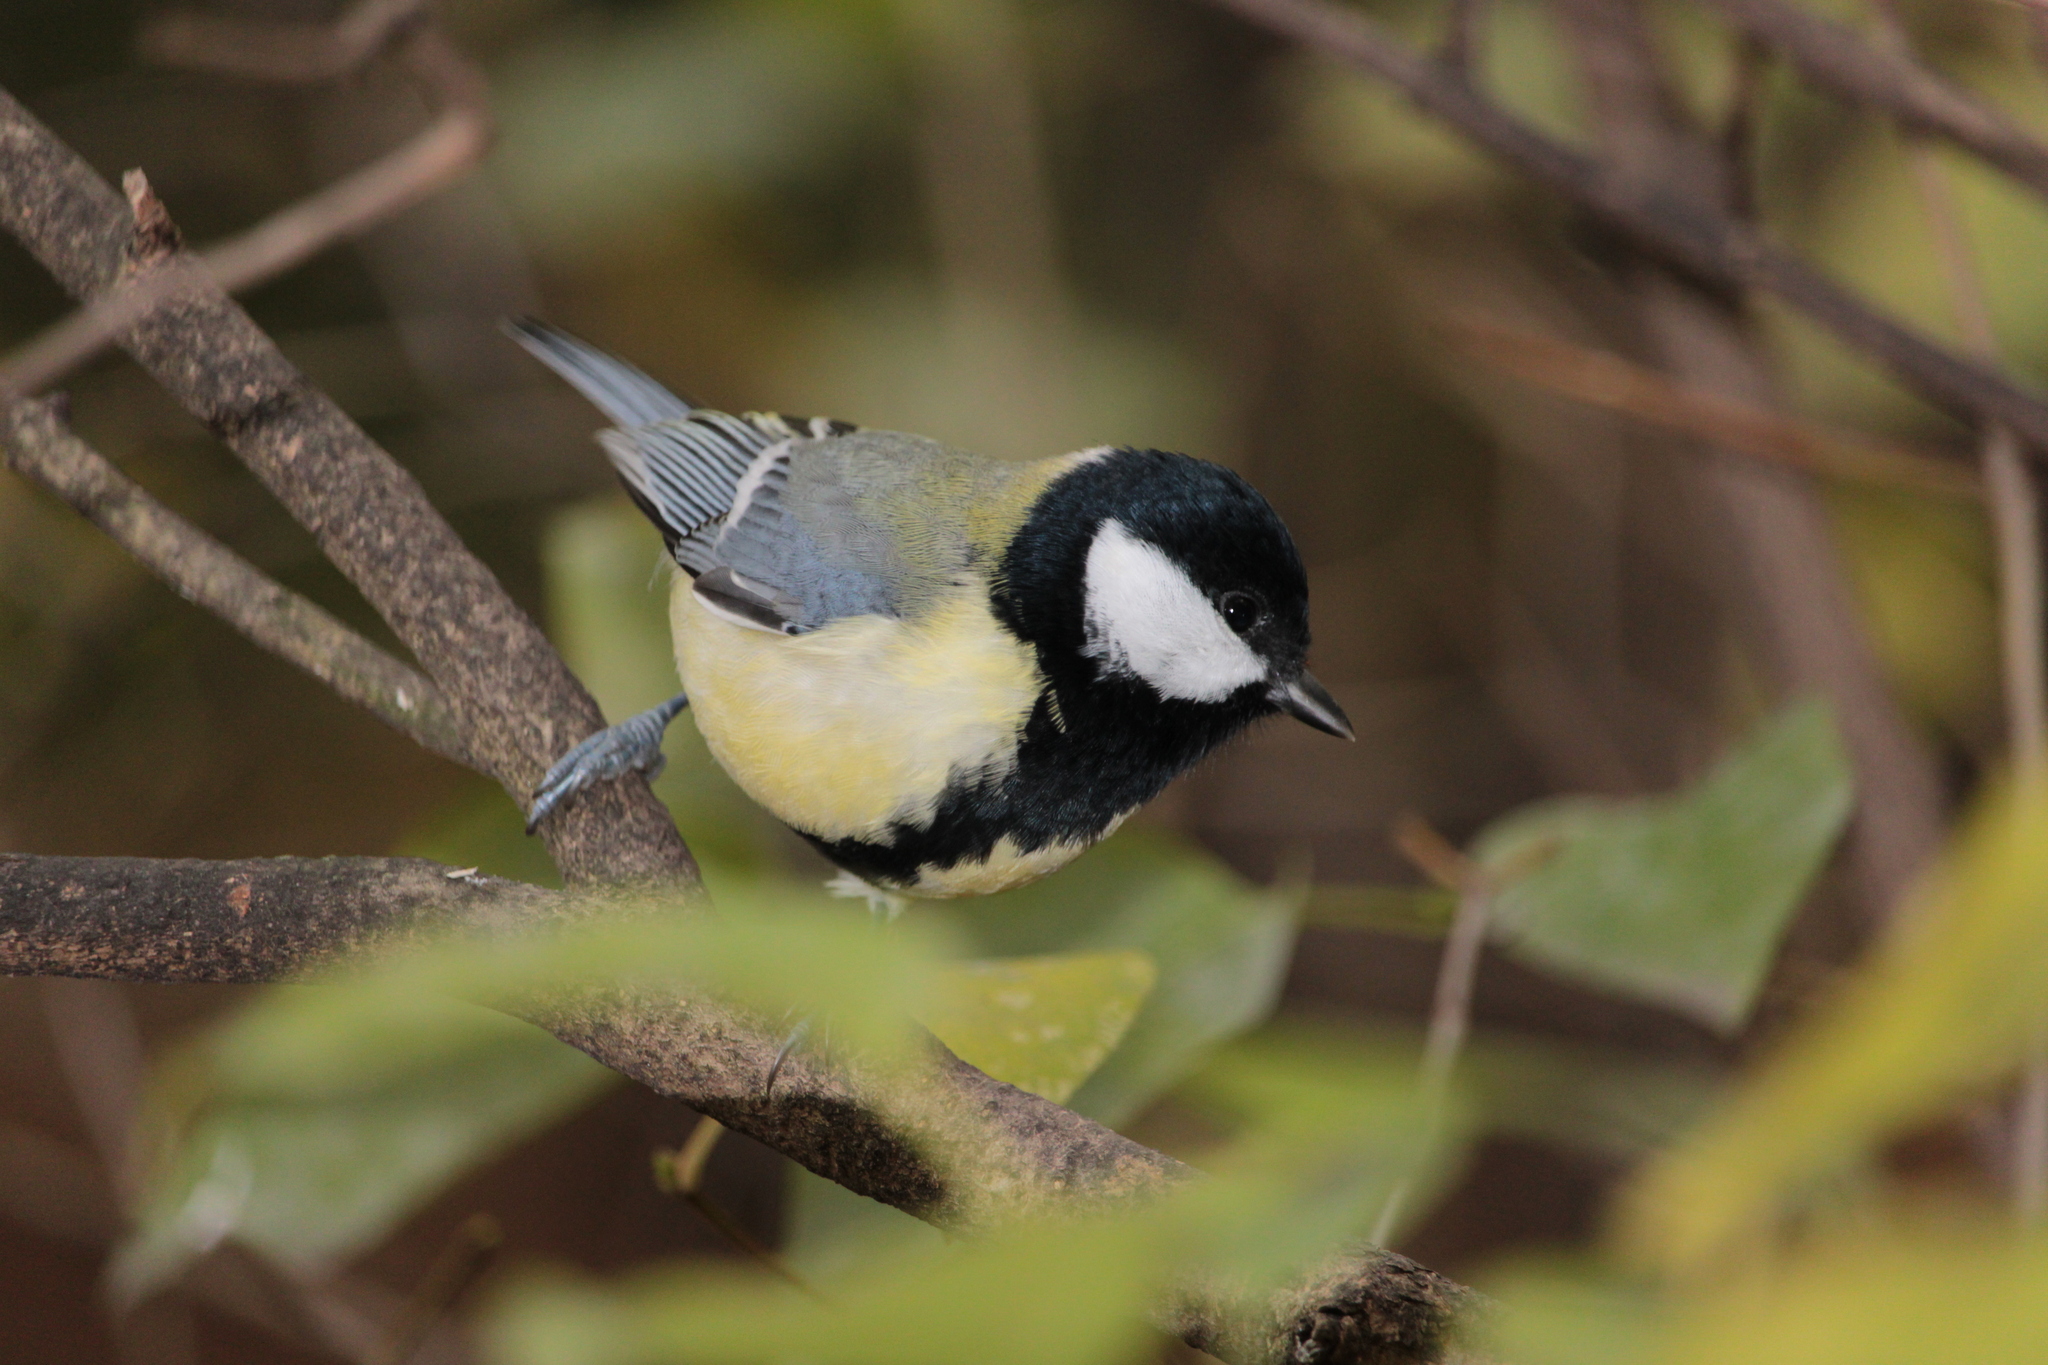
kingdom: Animalia
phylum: Chordata
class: Aves
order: Passeriformes
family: Paridae
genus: Parus
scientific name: Parus major
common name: Great tit
